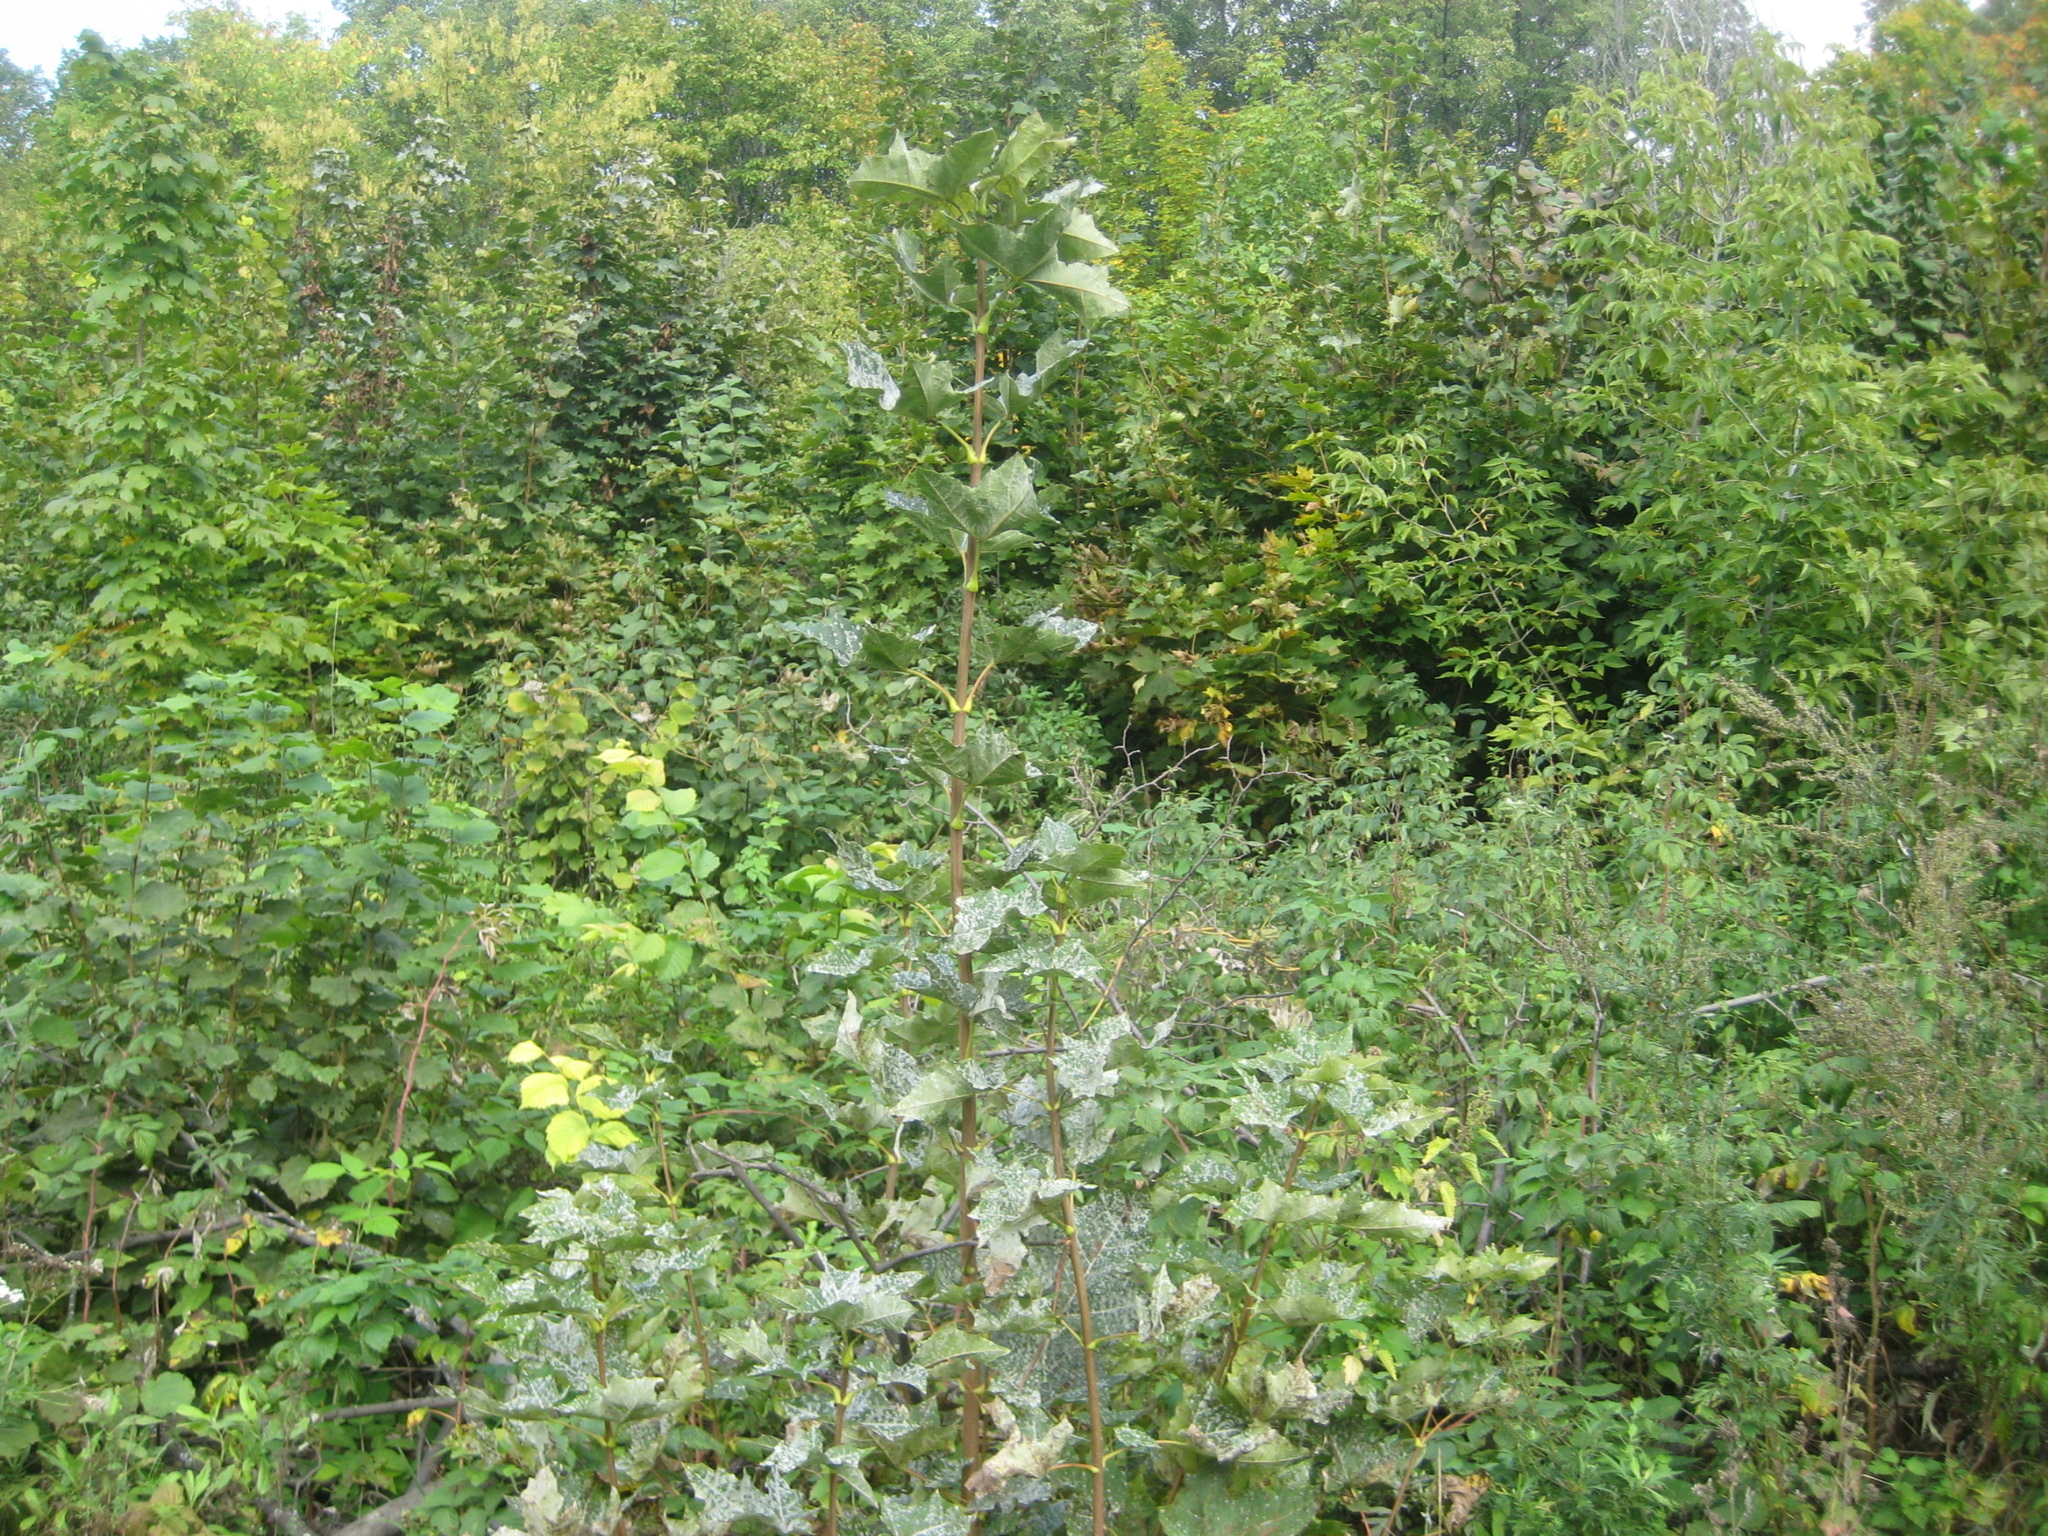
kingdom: Plantae
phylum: Tracheophyta
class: Magnoliopsida
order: Sapindales
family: Sapindaceae
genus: Acer
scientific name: Acer platanoides
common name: Norway maple
